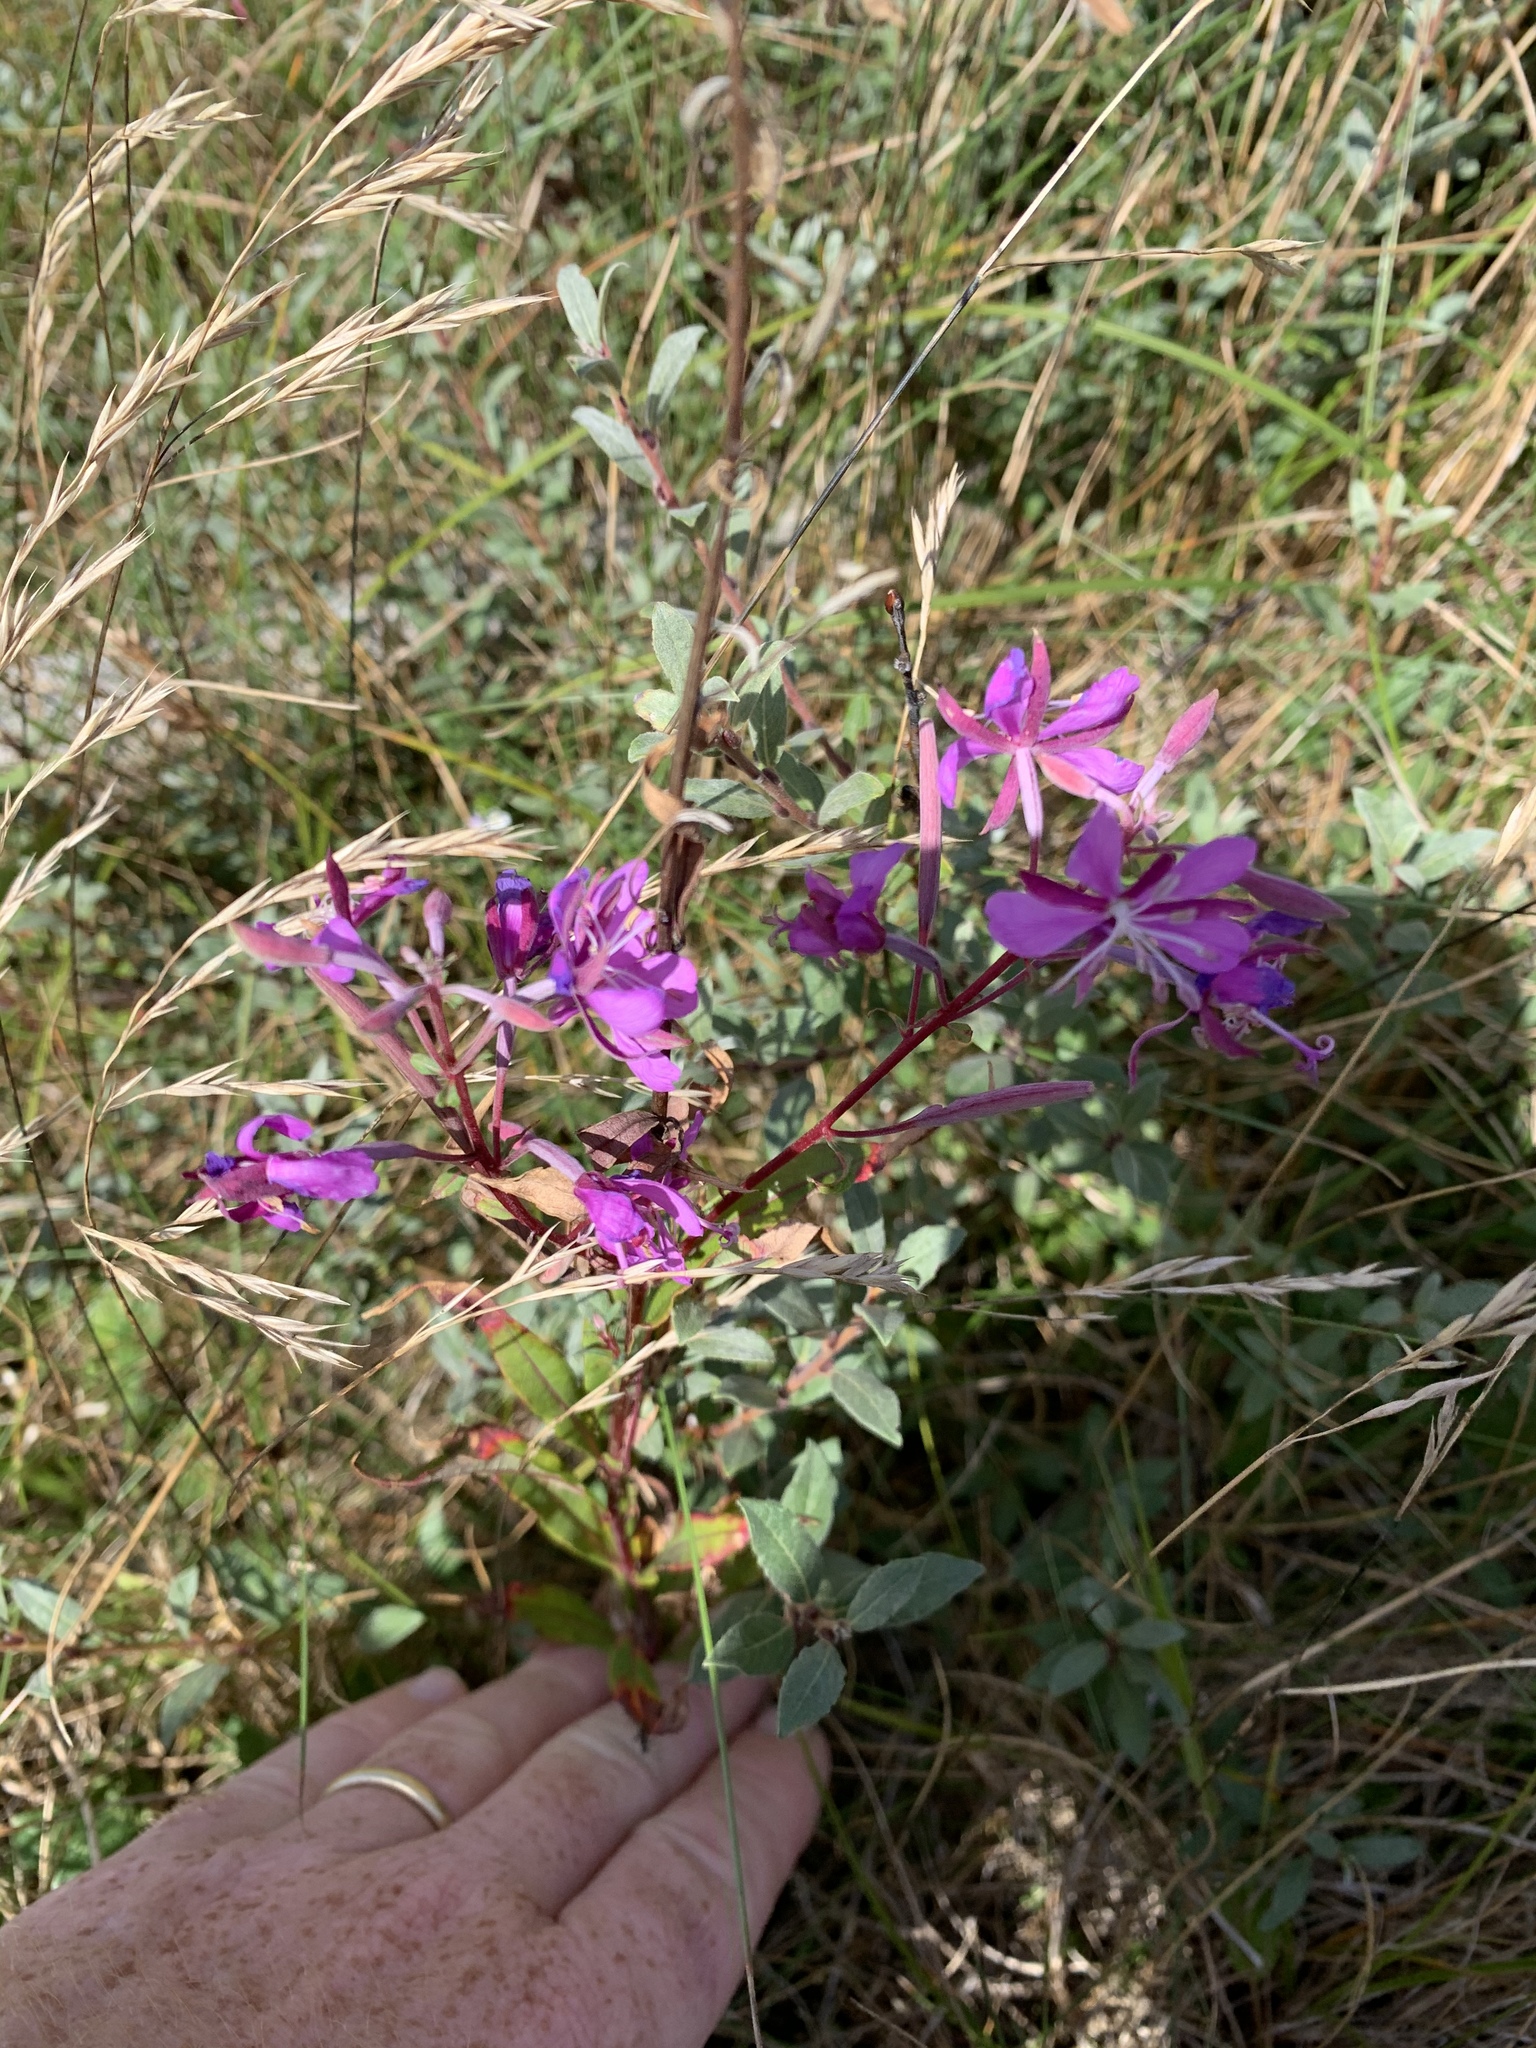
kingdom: Plantae
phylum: Tracheophyta
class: Magnoliopsida
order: Myrtales
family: Onagraceae
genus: Chamaenerion
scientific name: Chamaenerion angustifolium
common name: Fireweed
